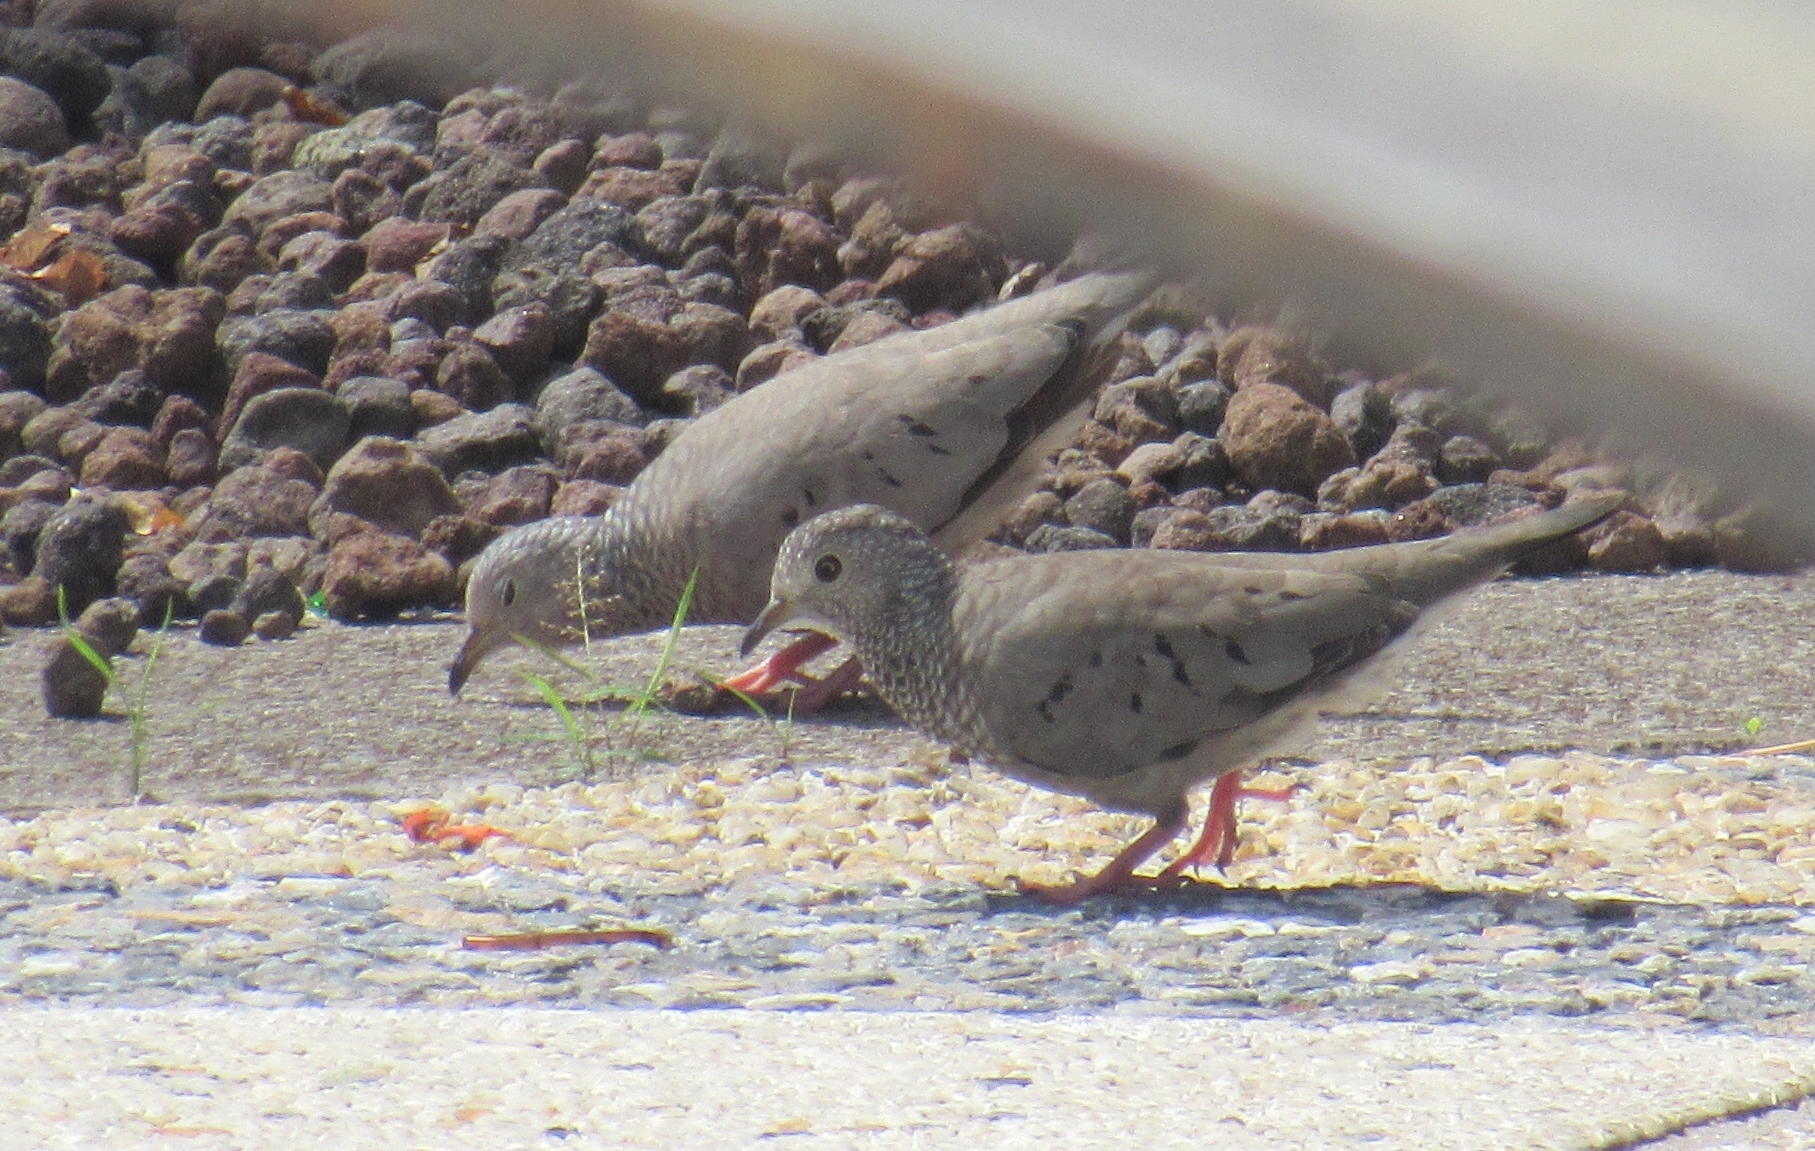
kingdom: Animalia
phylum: Chordata
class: Aves
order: Columbiformes
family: Columbidae
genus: Columbina
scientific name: Columbina passerina
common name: Common ground-dove
